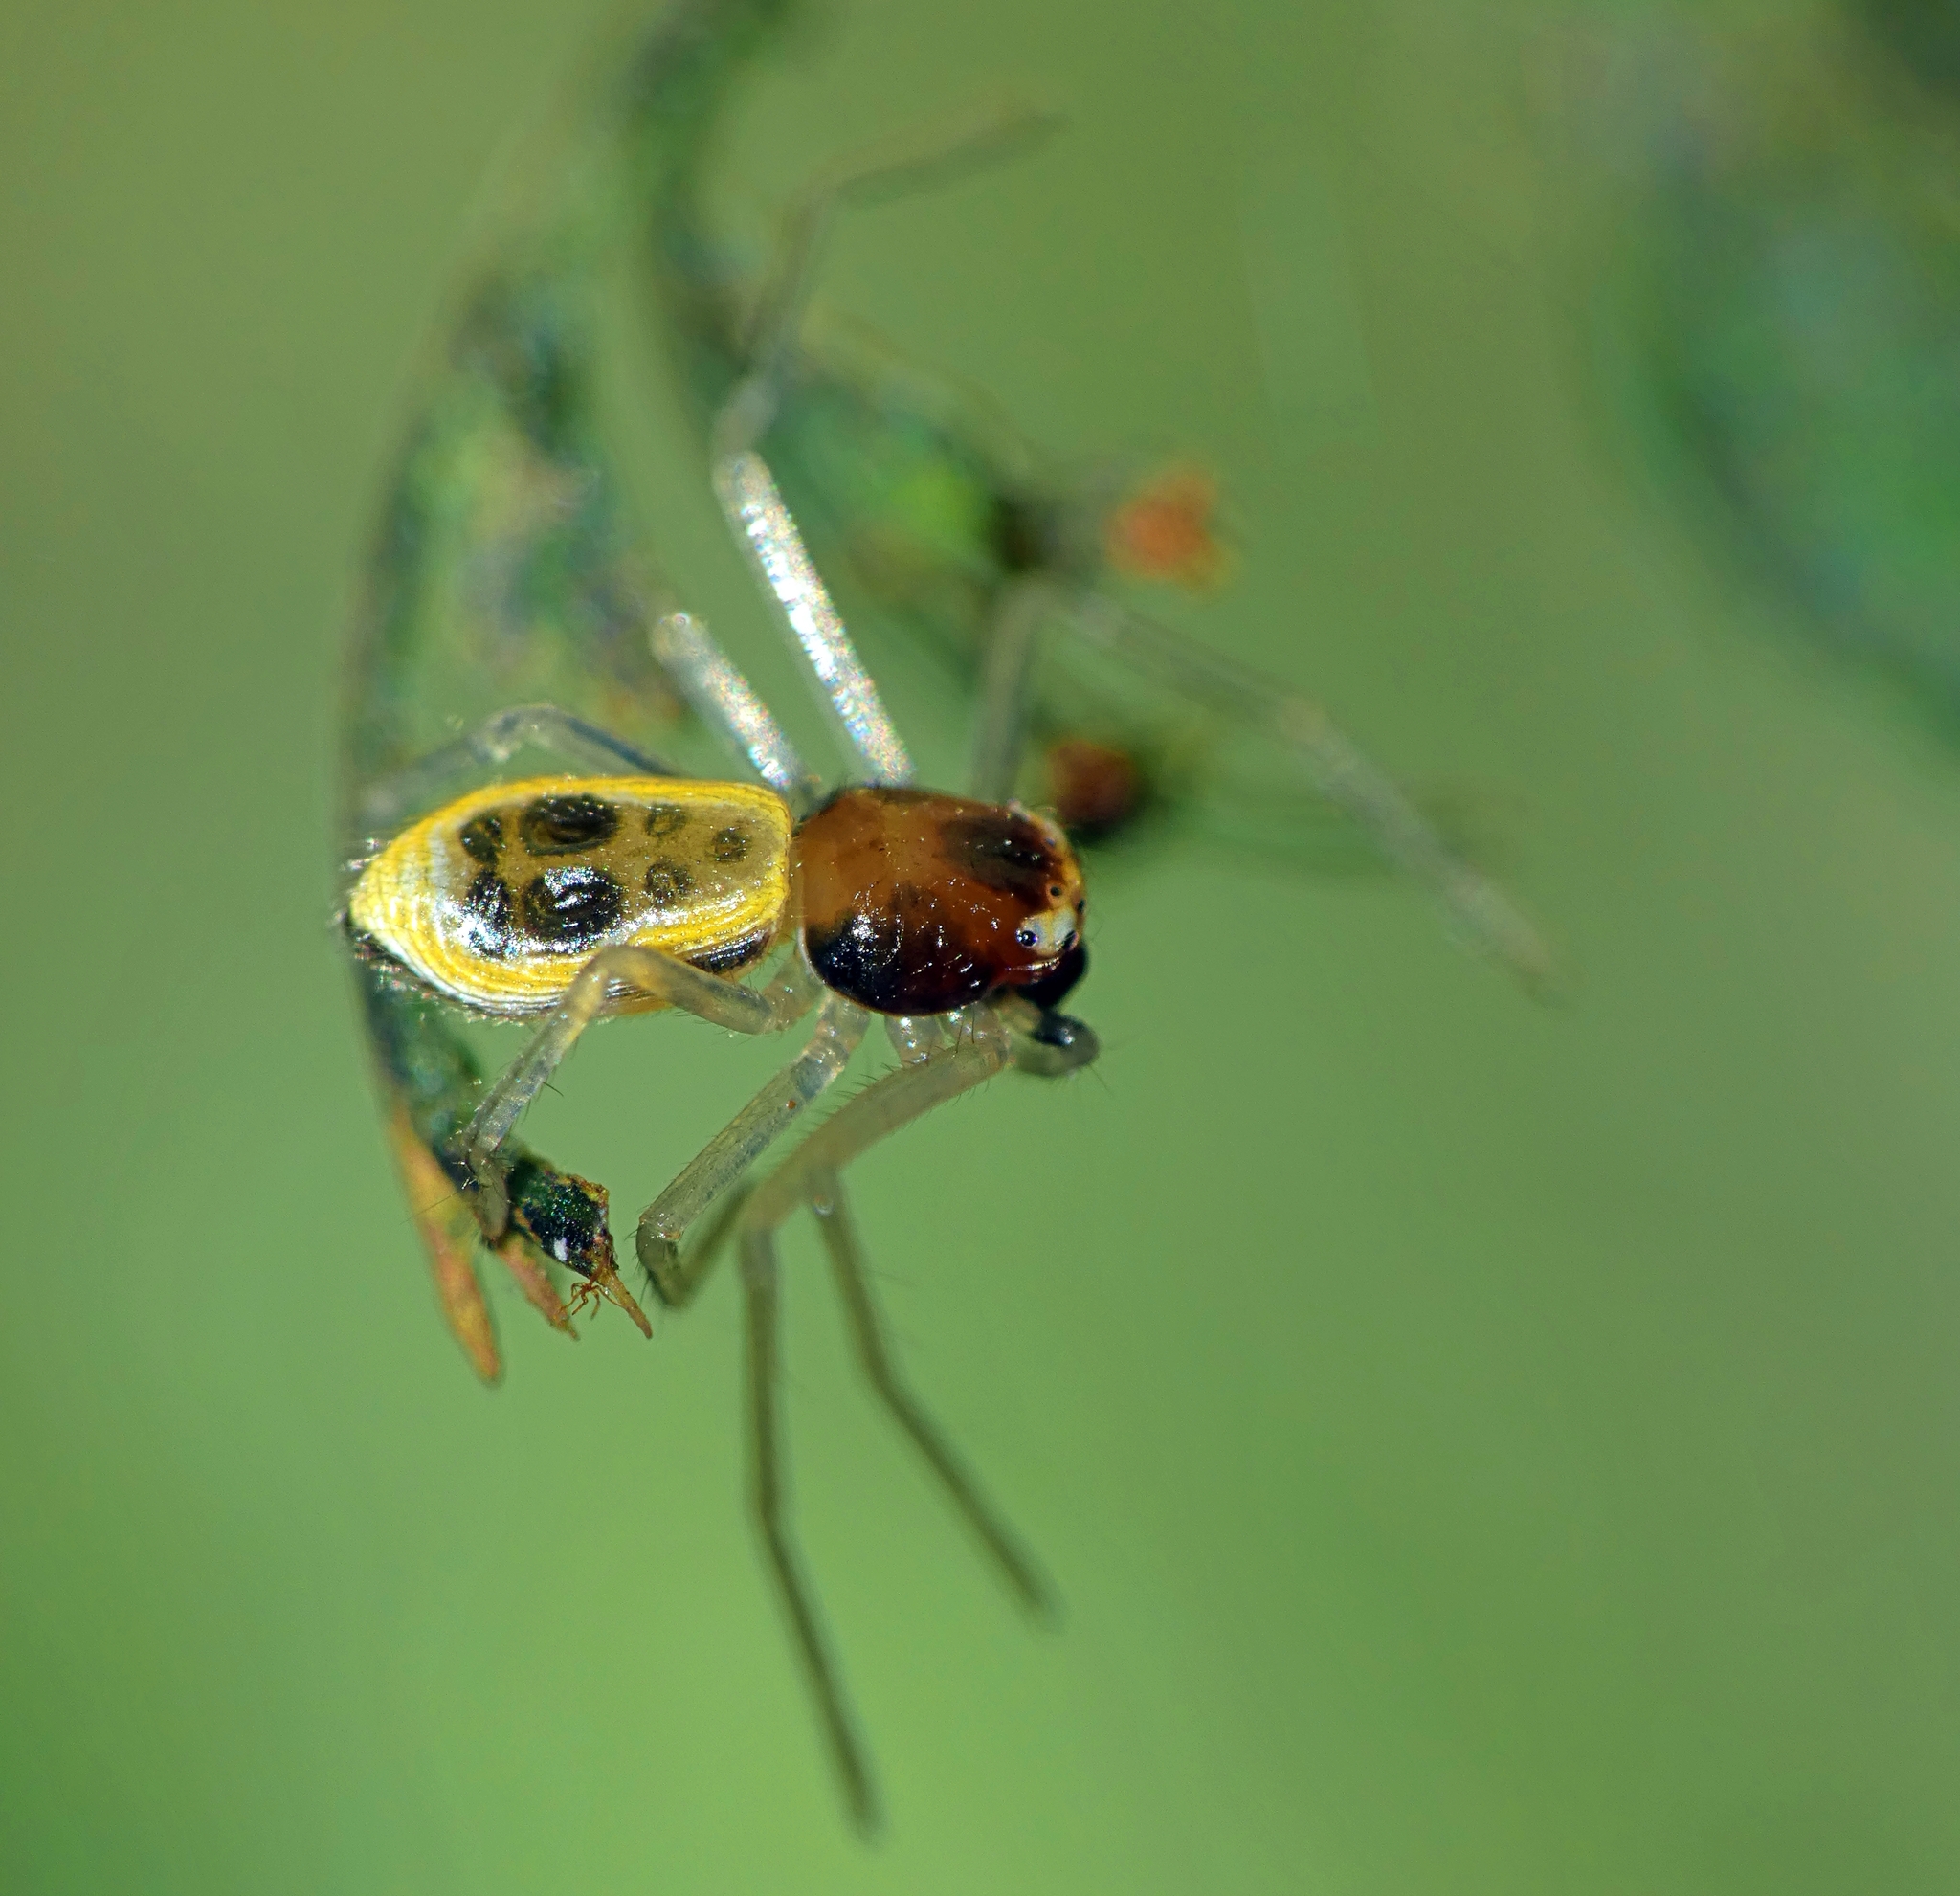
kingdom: Animalia
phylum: Arthropoda
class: Arachnida
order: Araneae
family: Thomisidae
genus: Poecilothomisus
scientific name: Poecilothomisus speciosus
